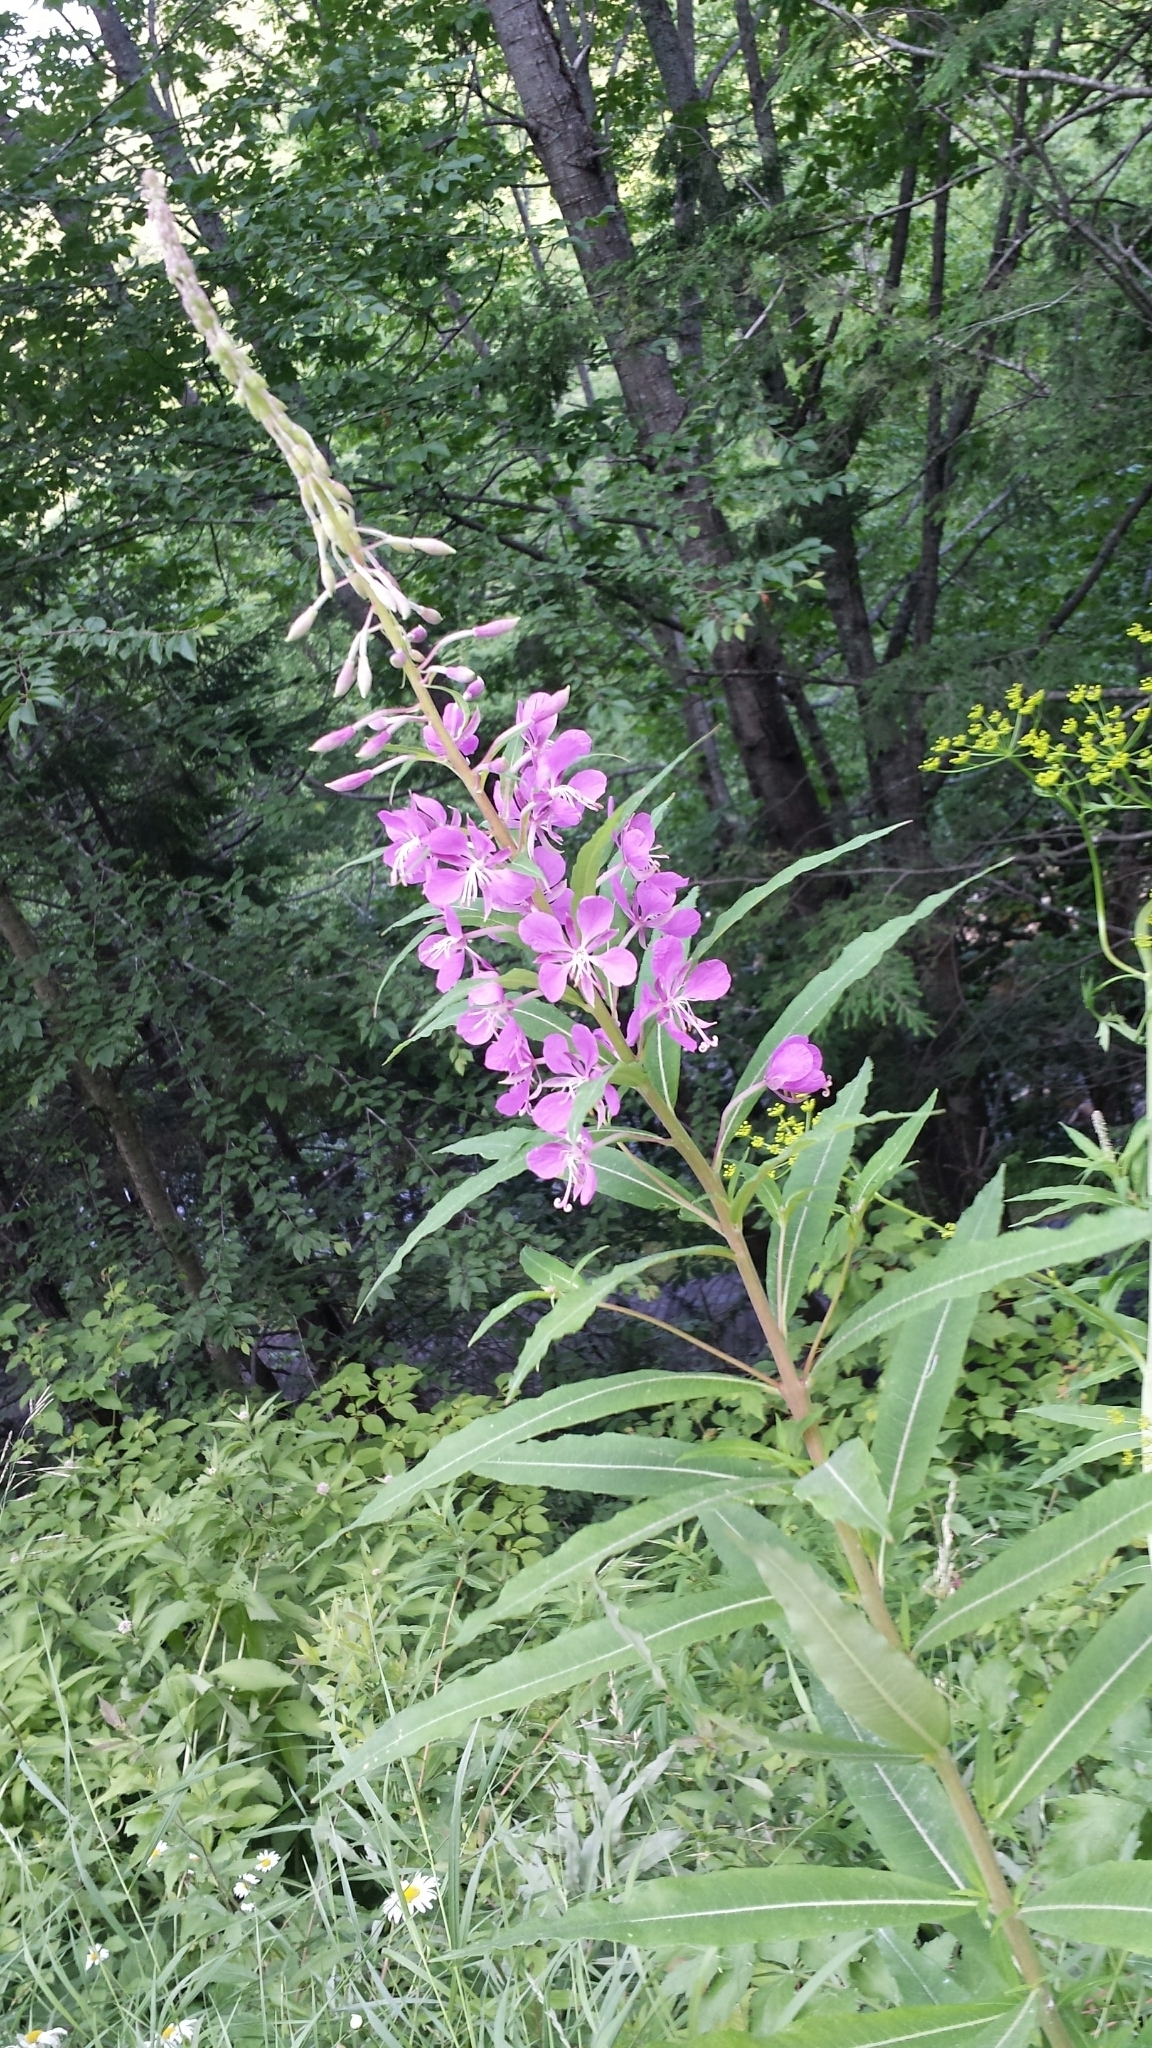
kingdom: Plantae
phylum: Tracheophyta
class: Magnoliopsida
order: Myrtales
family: Onagraceae
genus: Chamaenerion
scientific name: Chamaenerion angustifolium
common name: Fireweed
